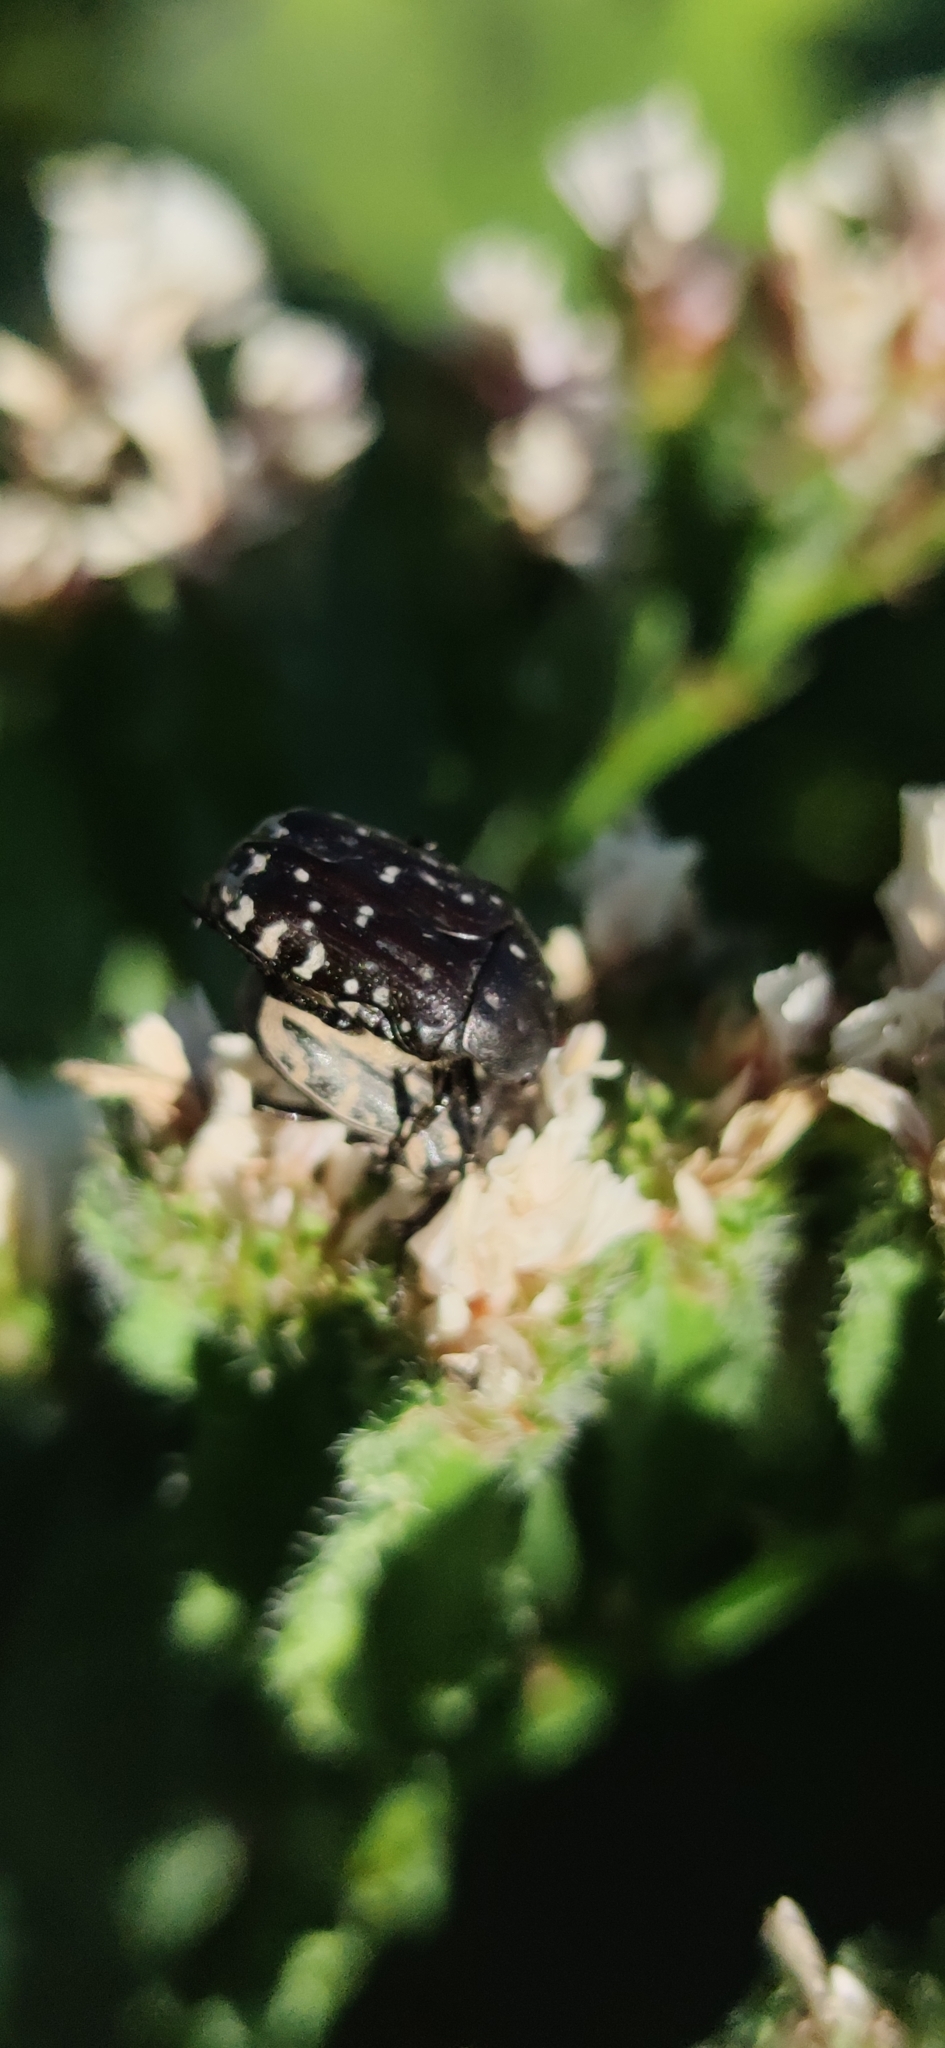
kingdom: Animalia
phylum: Arthropoda
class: Insecta
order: Coleoptera
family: Scarabaeidae
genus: Oxythyrea
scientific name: Oxythyrea funesta
